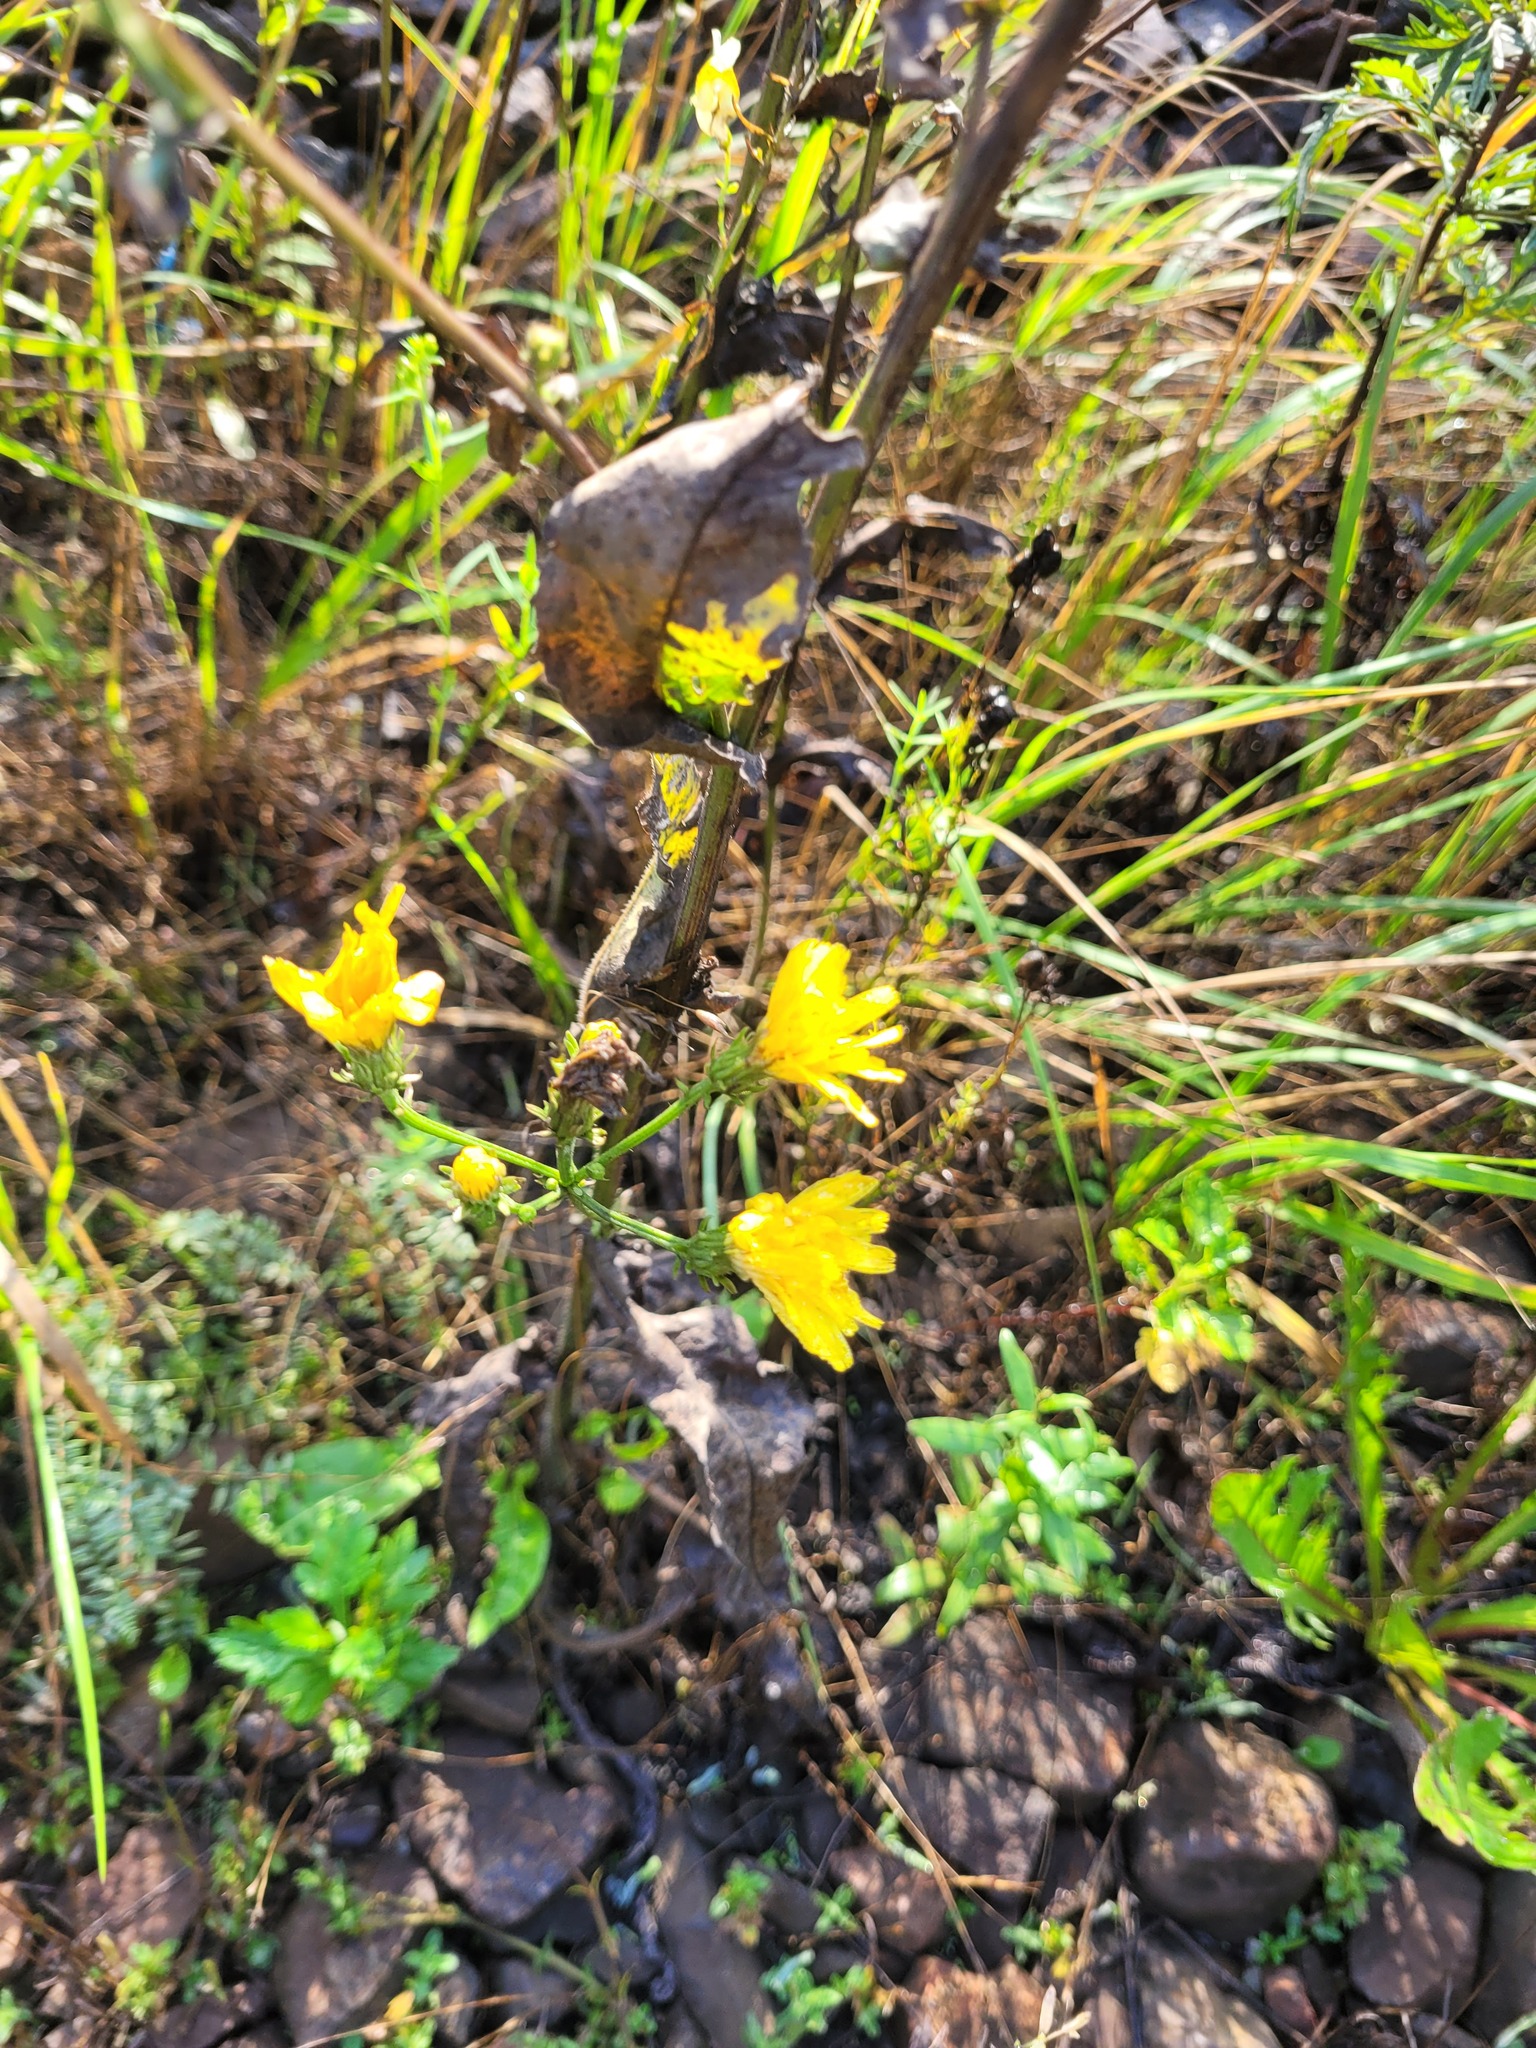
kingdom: Plantae
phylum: Tracheophyta
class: Magnoliopsida
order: Asterales
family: Asteraceae
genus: Picris
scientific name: Picris hieracioides
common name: Hawkweed oxtongue
